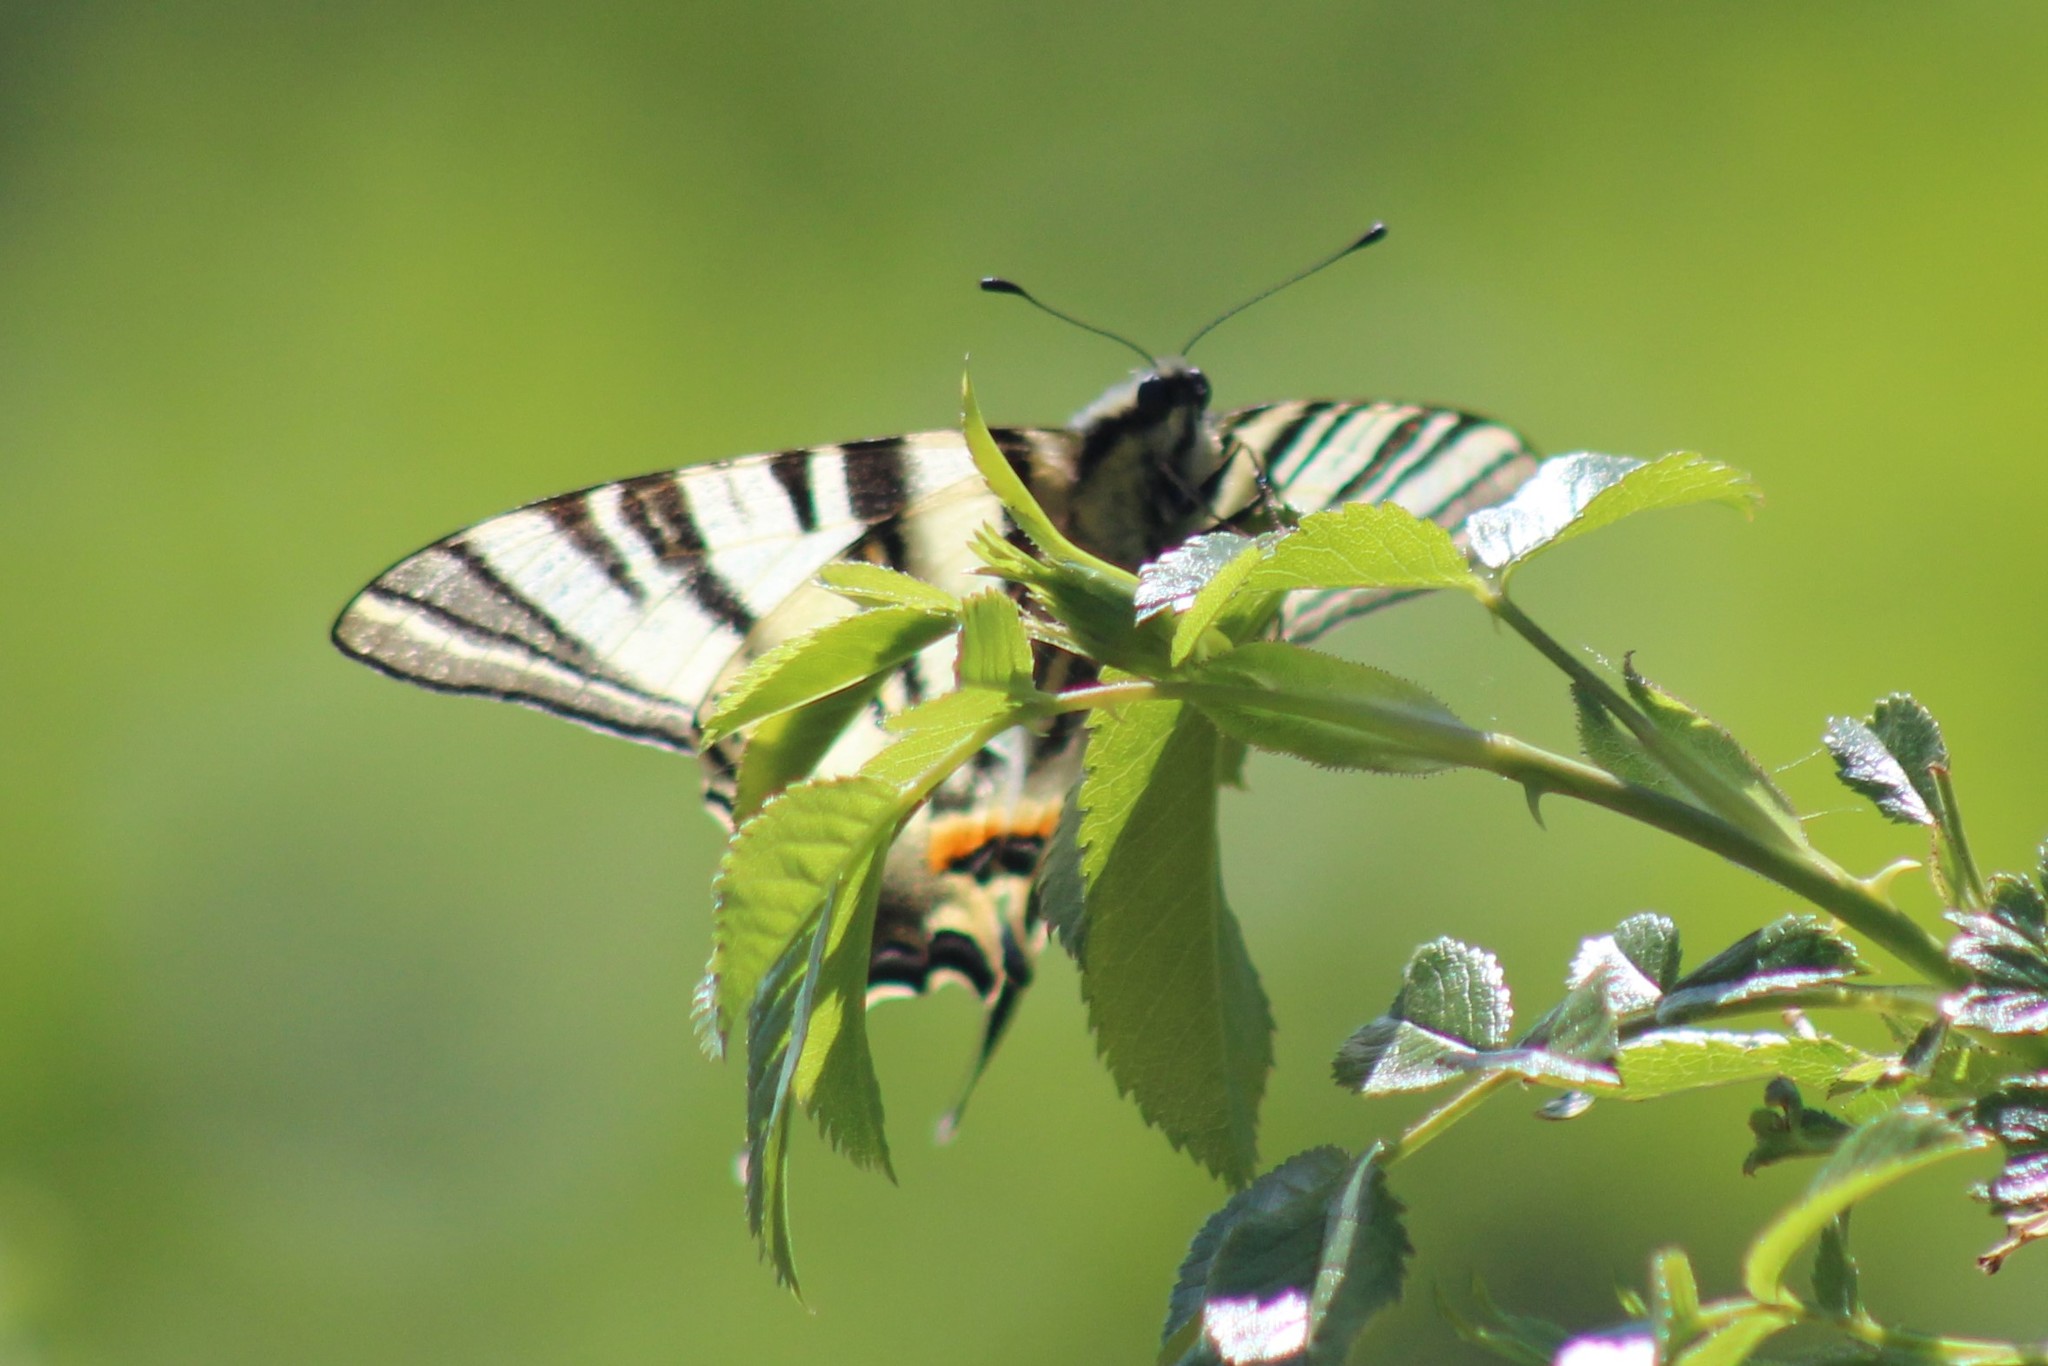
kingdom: Animalia
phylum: Arthropoda
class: Insecta
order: Lepidoptera
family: Papilionidae
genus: Iphiclides
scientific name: Iphiclides podalirius
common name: Scarce swallowtail
